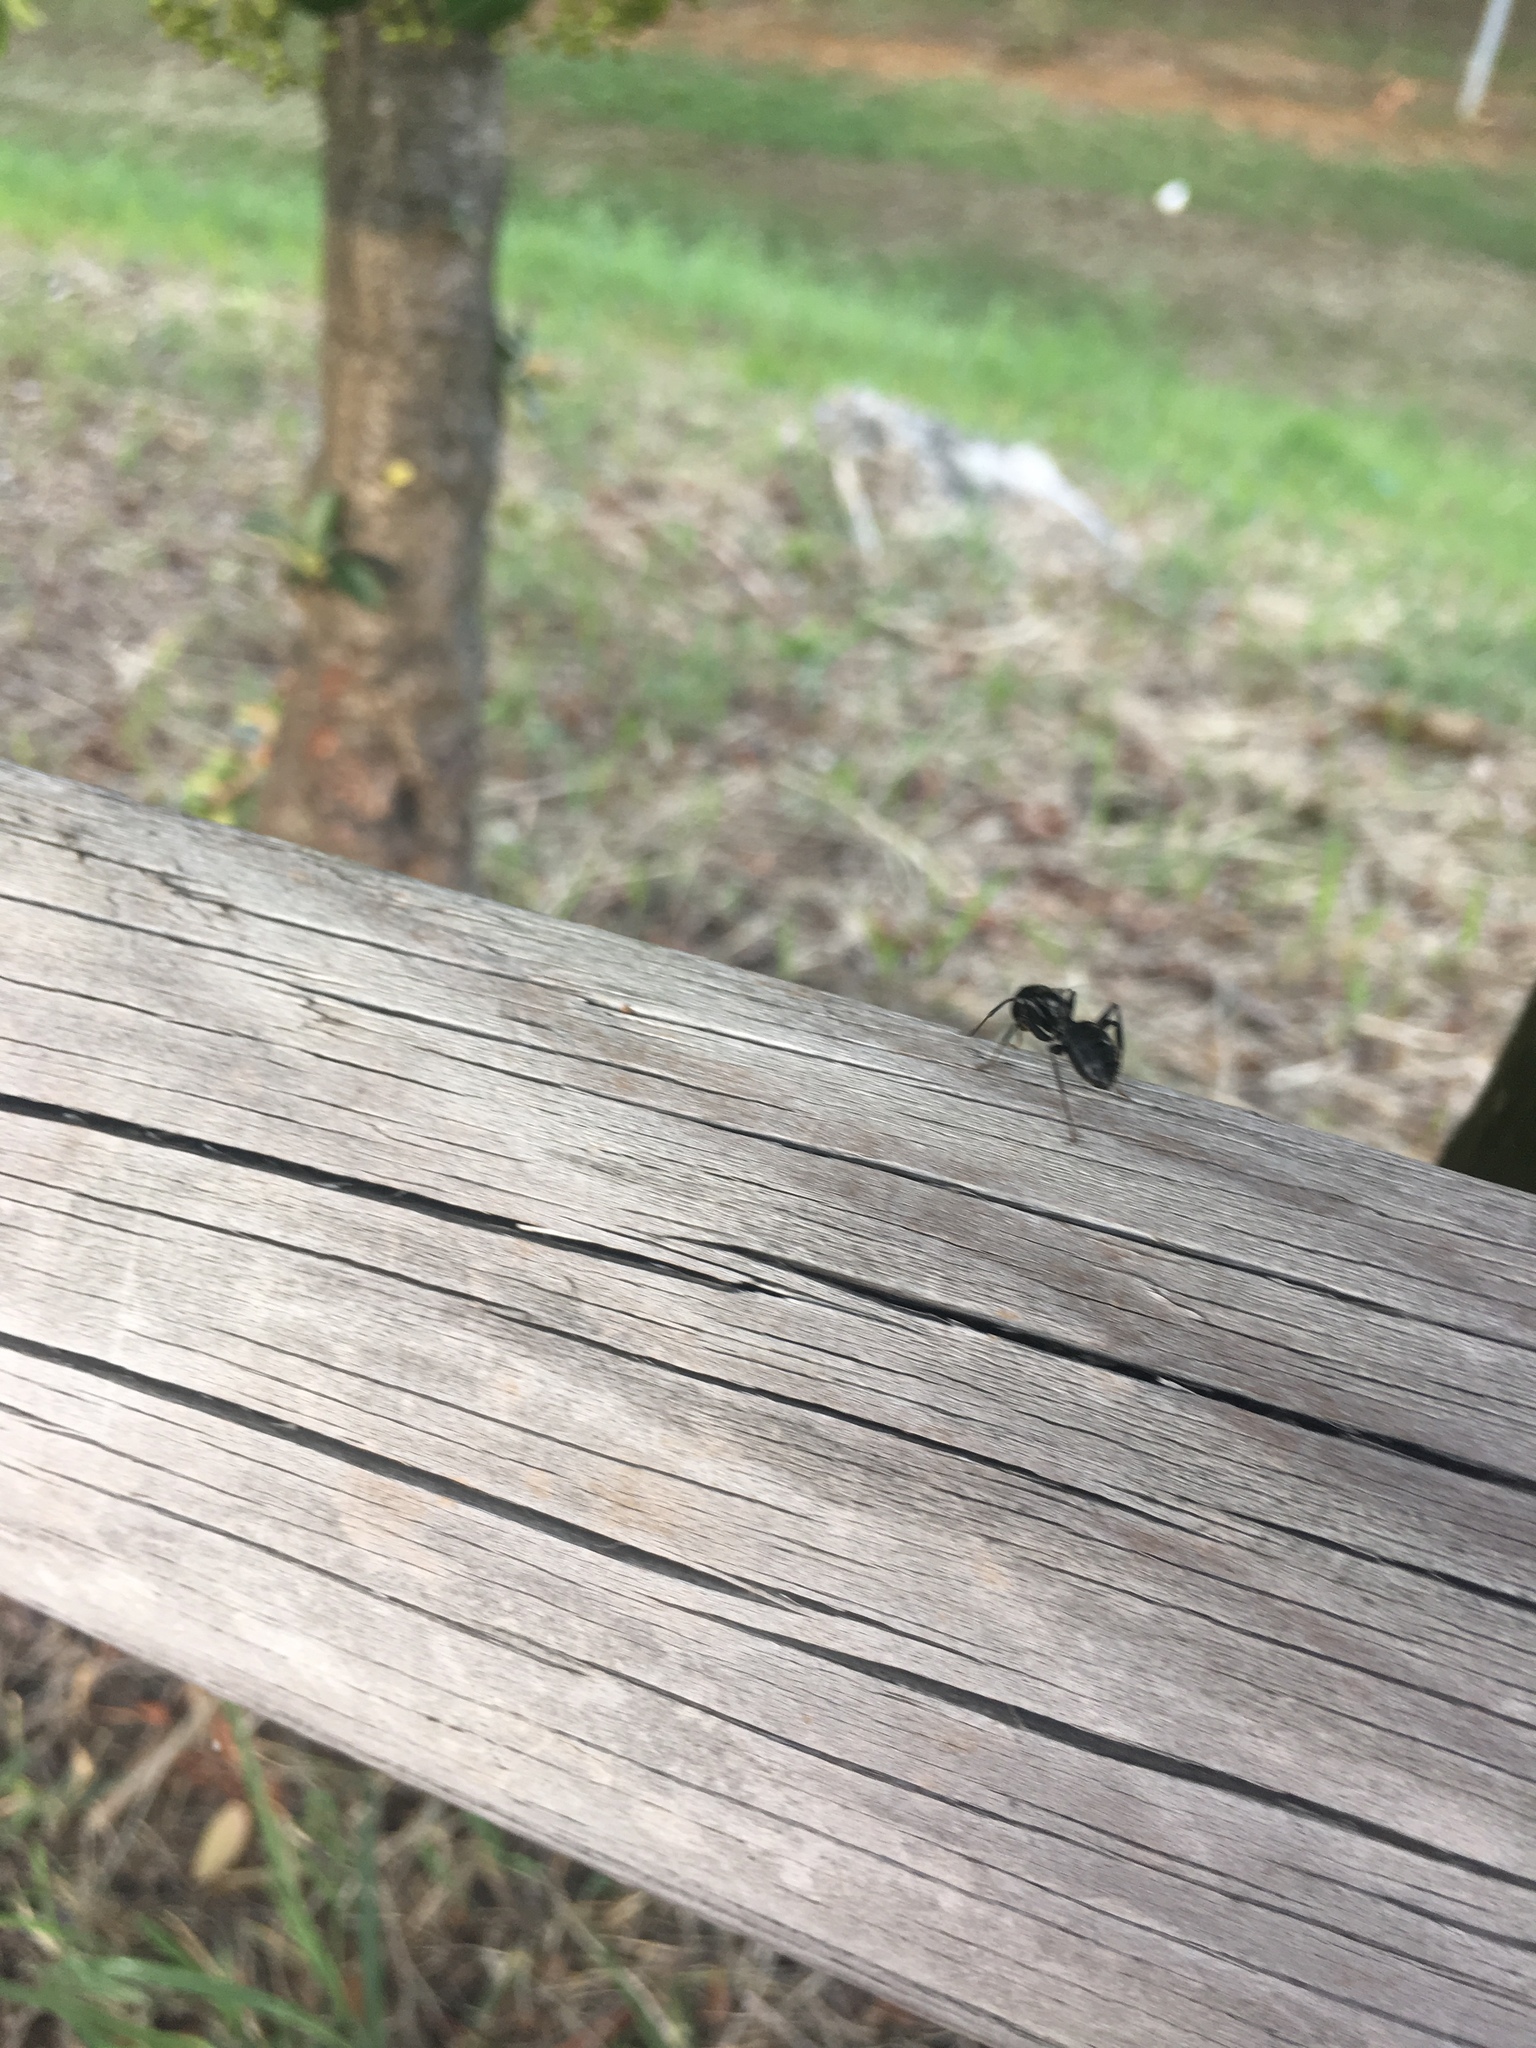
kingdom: Animalia
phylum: Arthropoda
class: Insecta
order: Hymenoptera
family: Formicidae
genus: Camponotus
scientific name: Camponotus vagus
